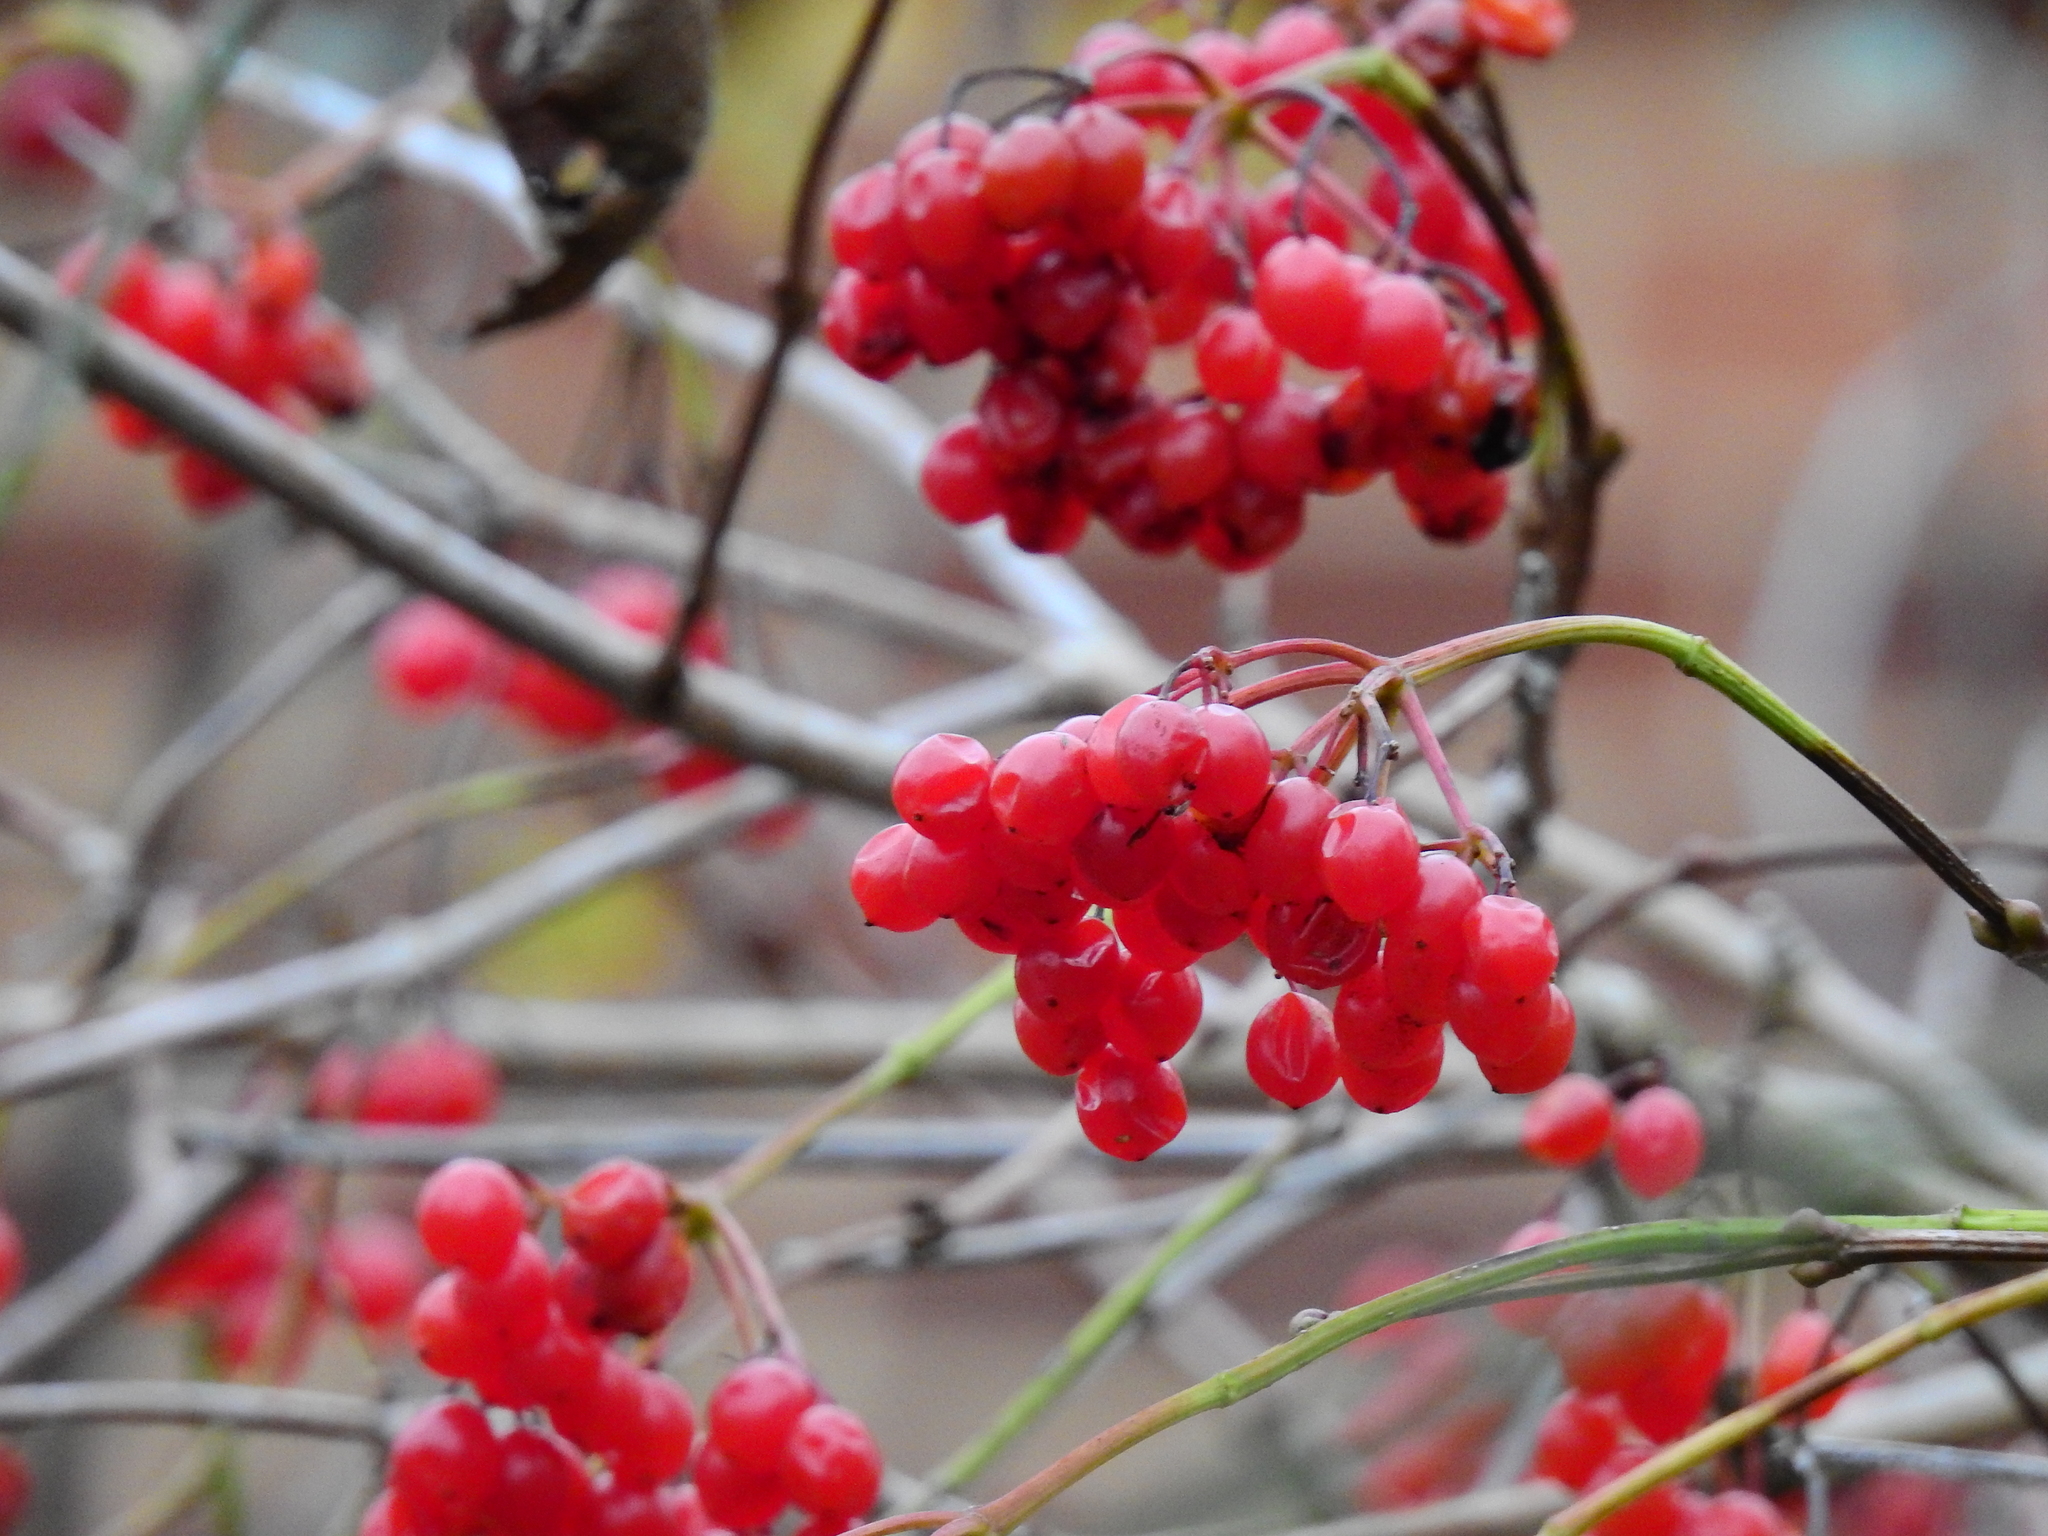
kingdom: Plantae
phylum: Tracheophyta
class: Magnoliopsida
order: Dipsacales
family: Viburnaceae
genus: Viburnum
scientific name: Viburnum opulus
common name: Guelder-rose
